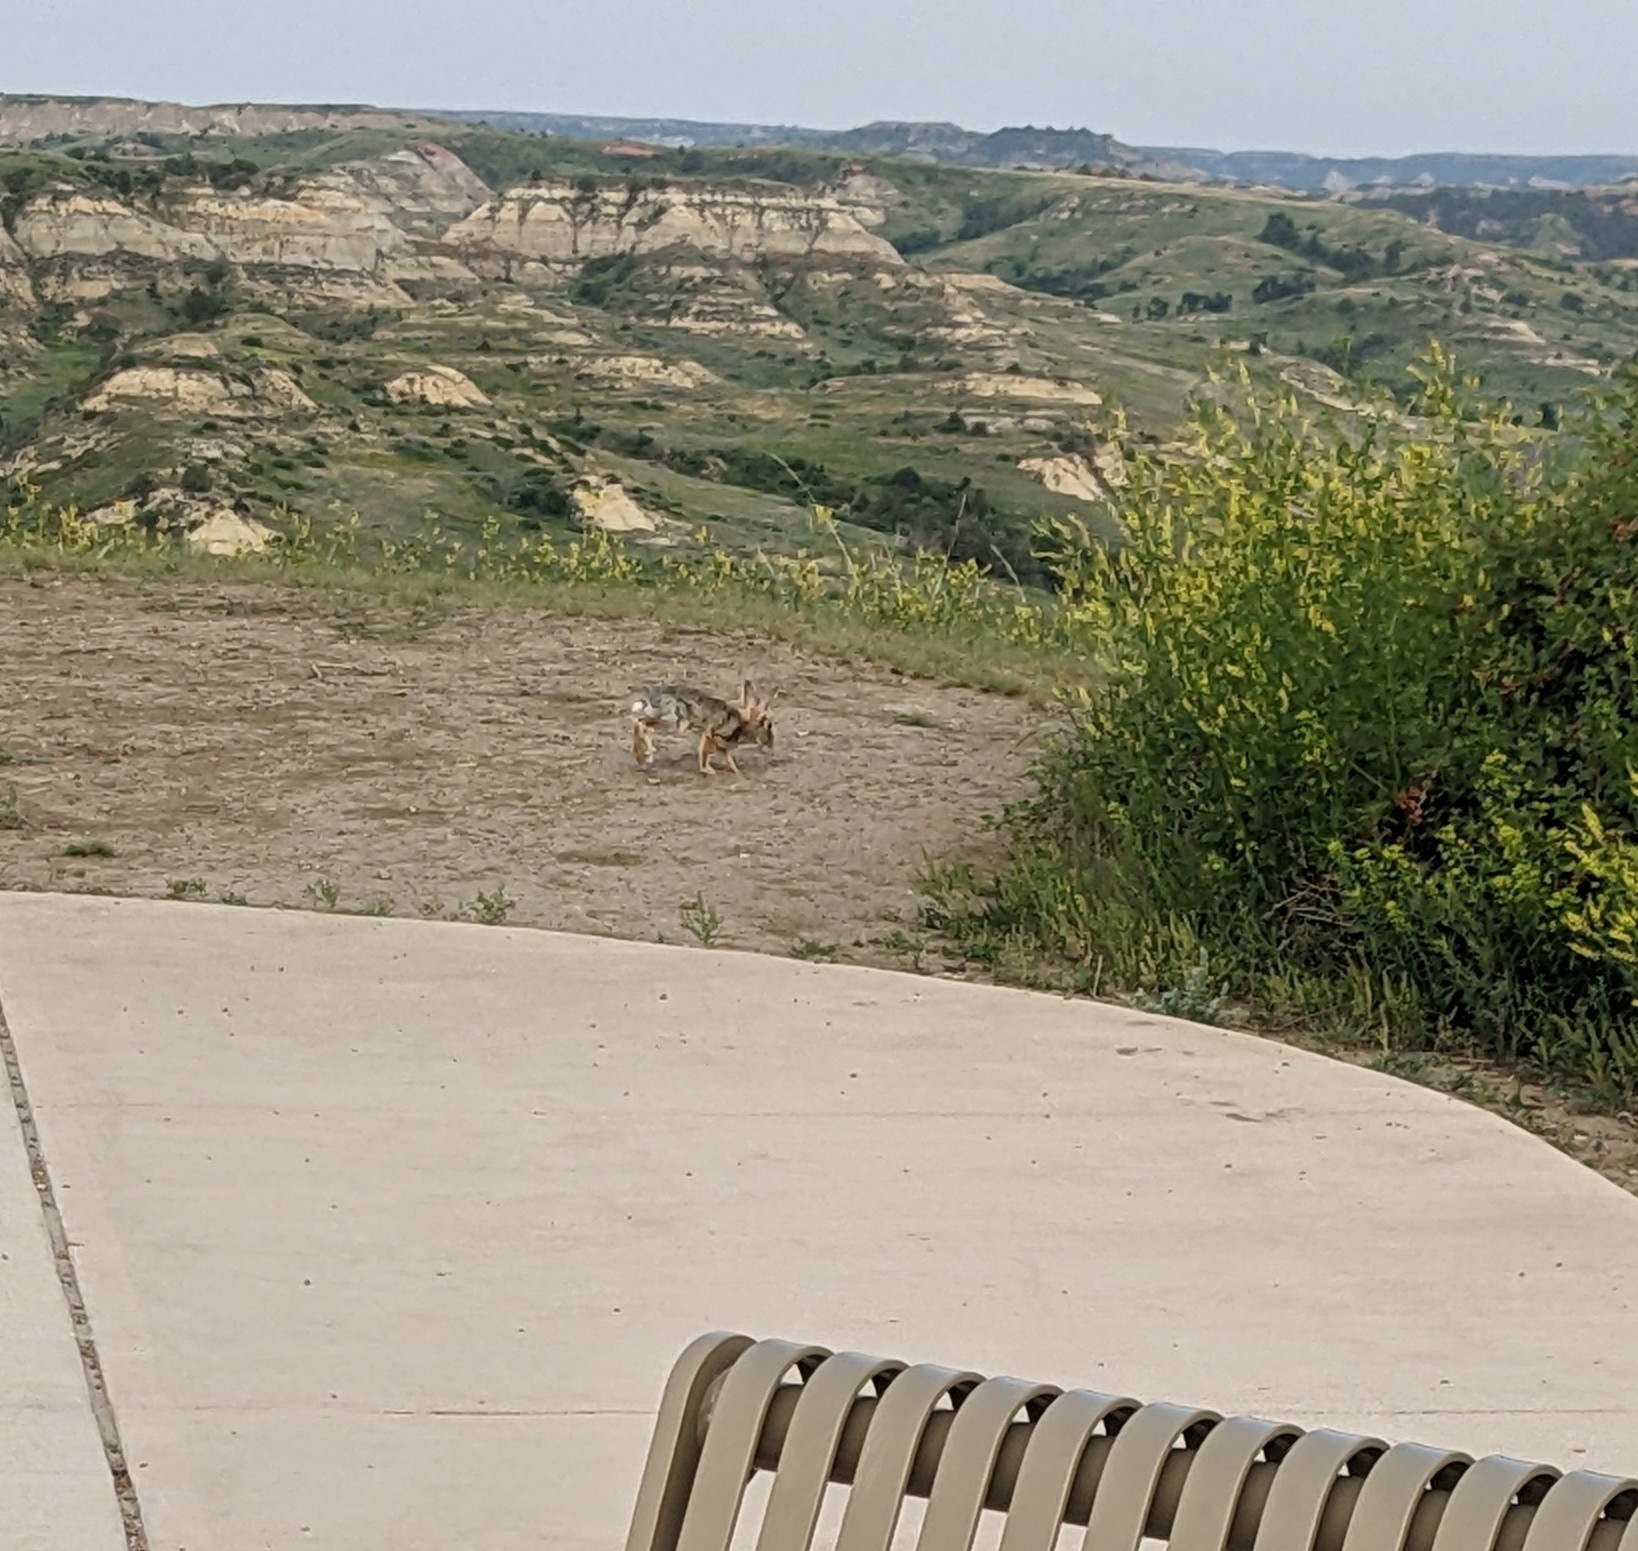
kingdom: Animalia
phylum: Chordata
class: Mammalia
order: Lagomorpha
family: Leporidae
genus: Sylvilagus
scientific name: Sylvilagus audubonii
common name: Desert cottontail
